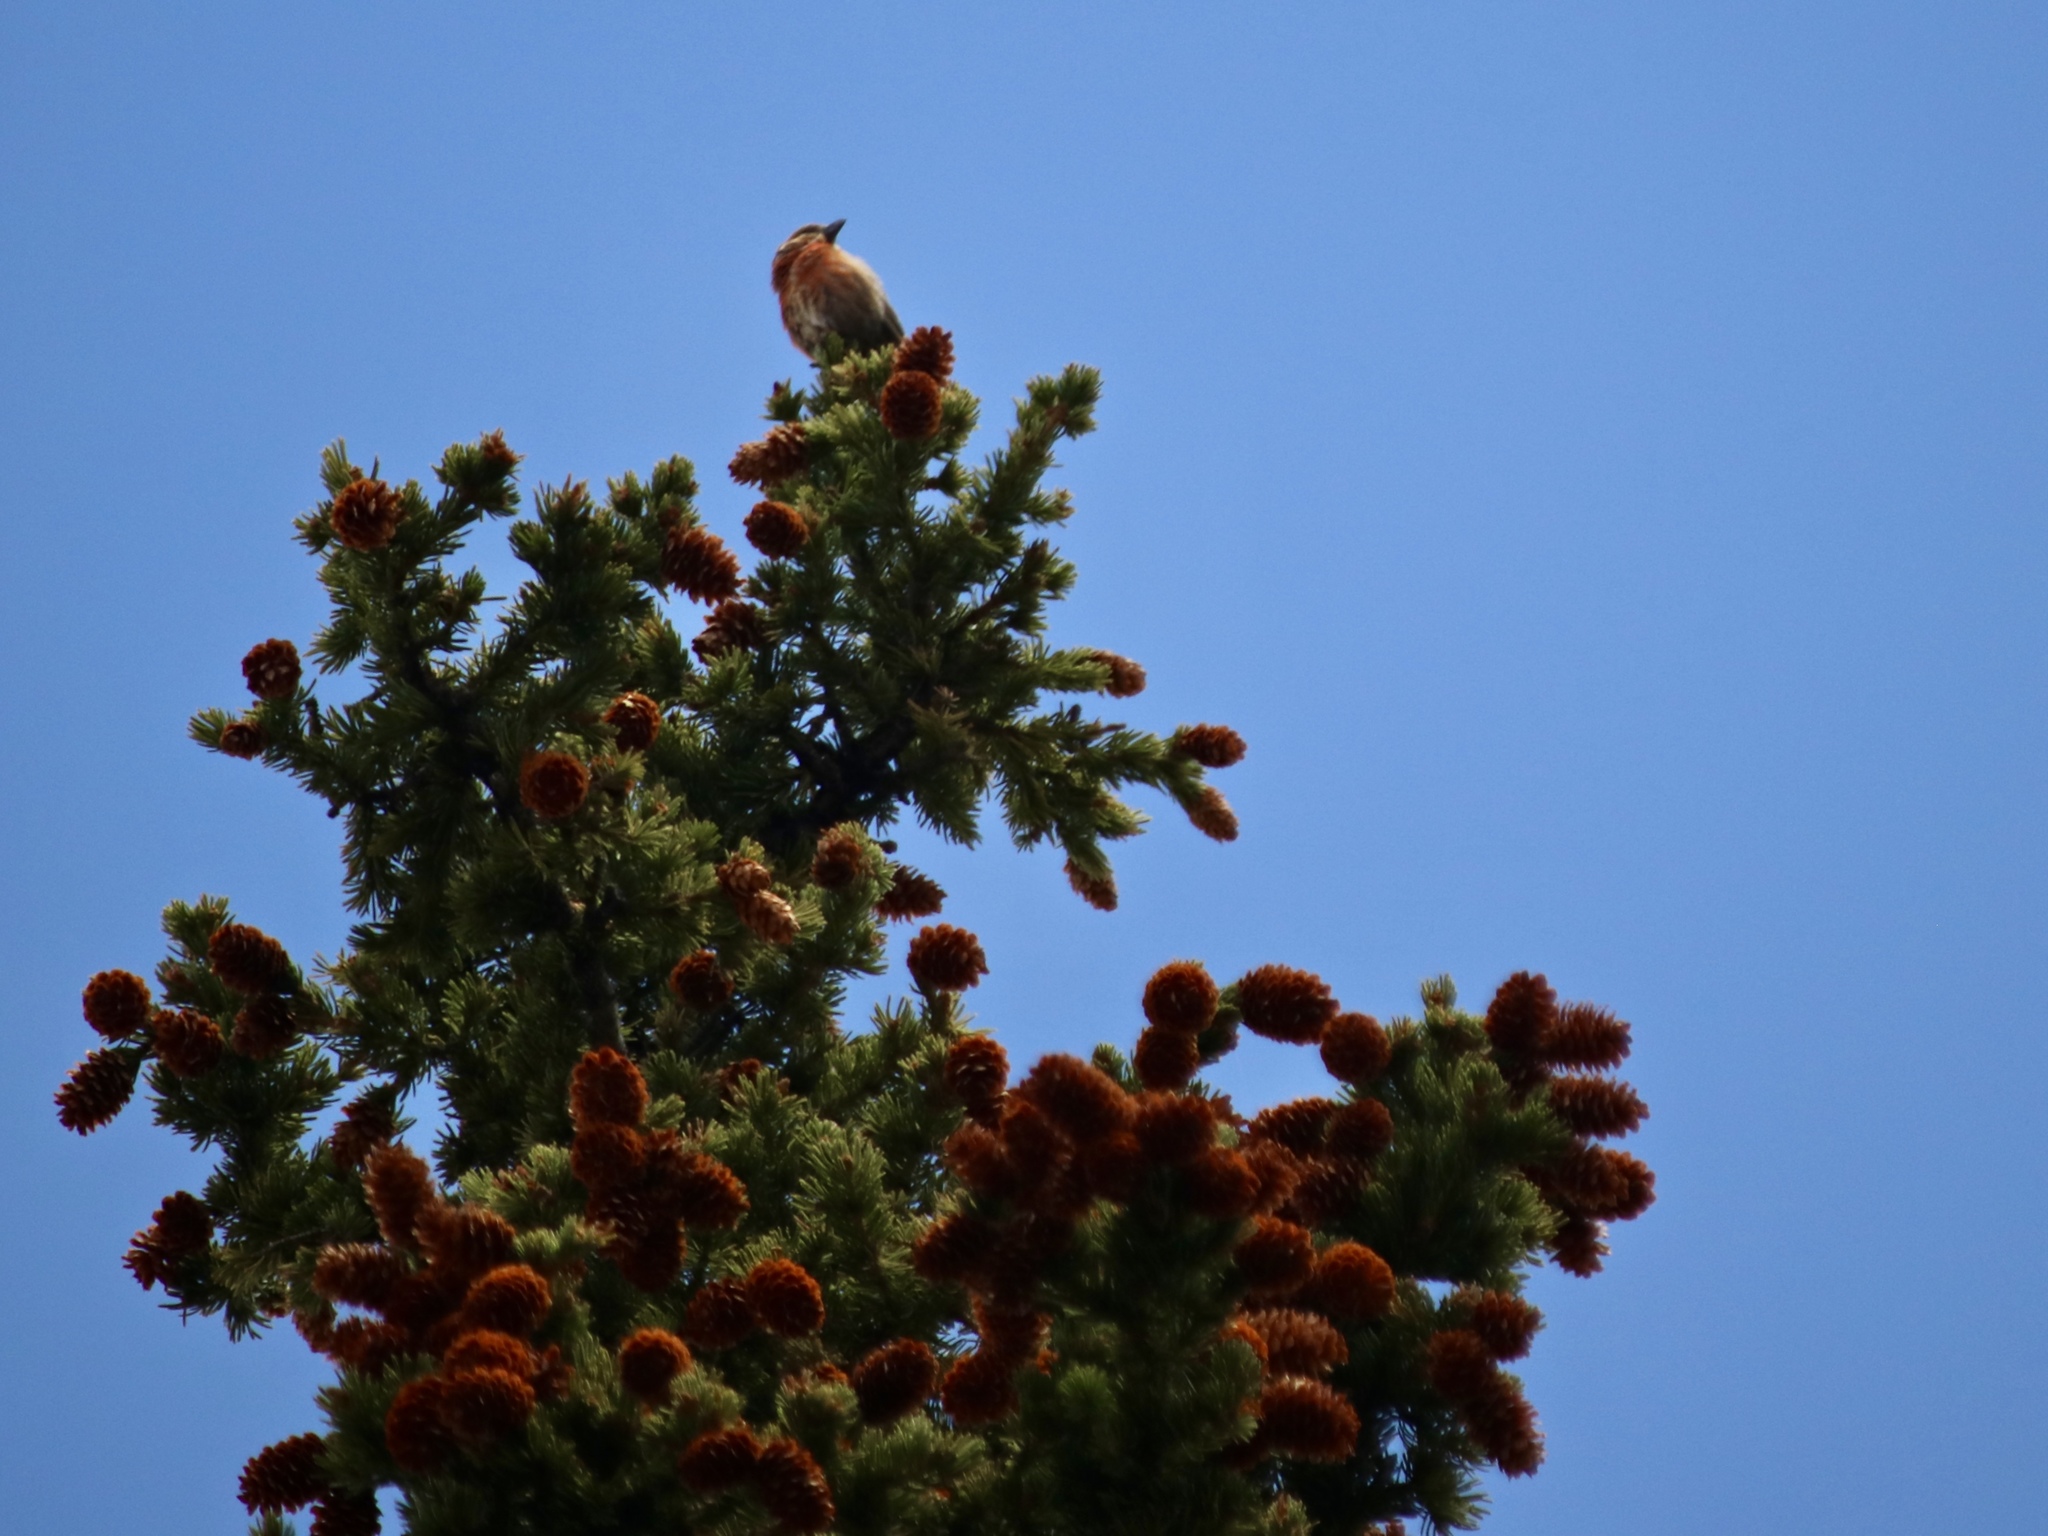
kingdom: Animalia
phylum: Chordata
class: Aves
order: Passeriformes
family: Fringillidae
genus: Loxia
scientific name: Loxia curvirostra
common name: Red crossbill
